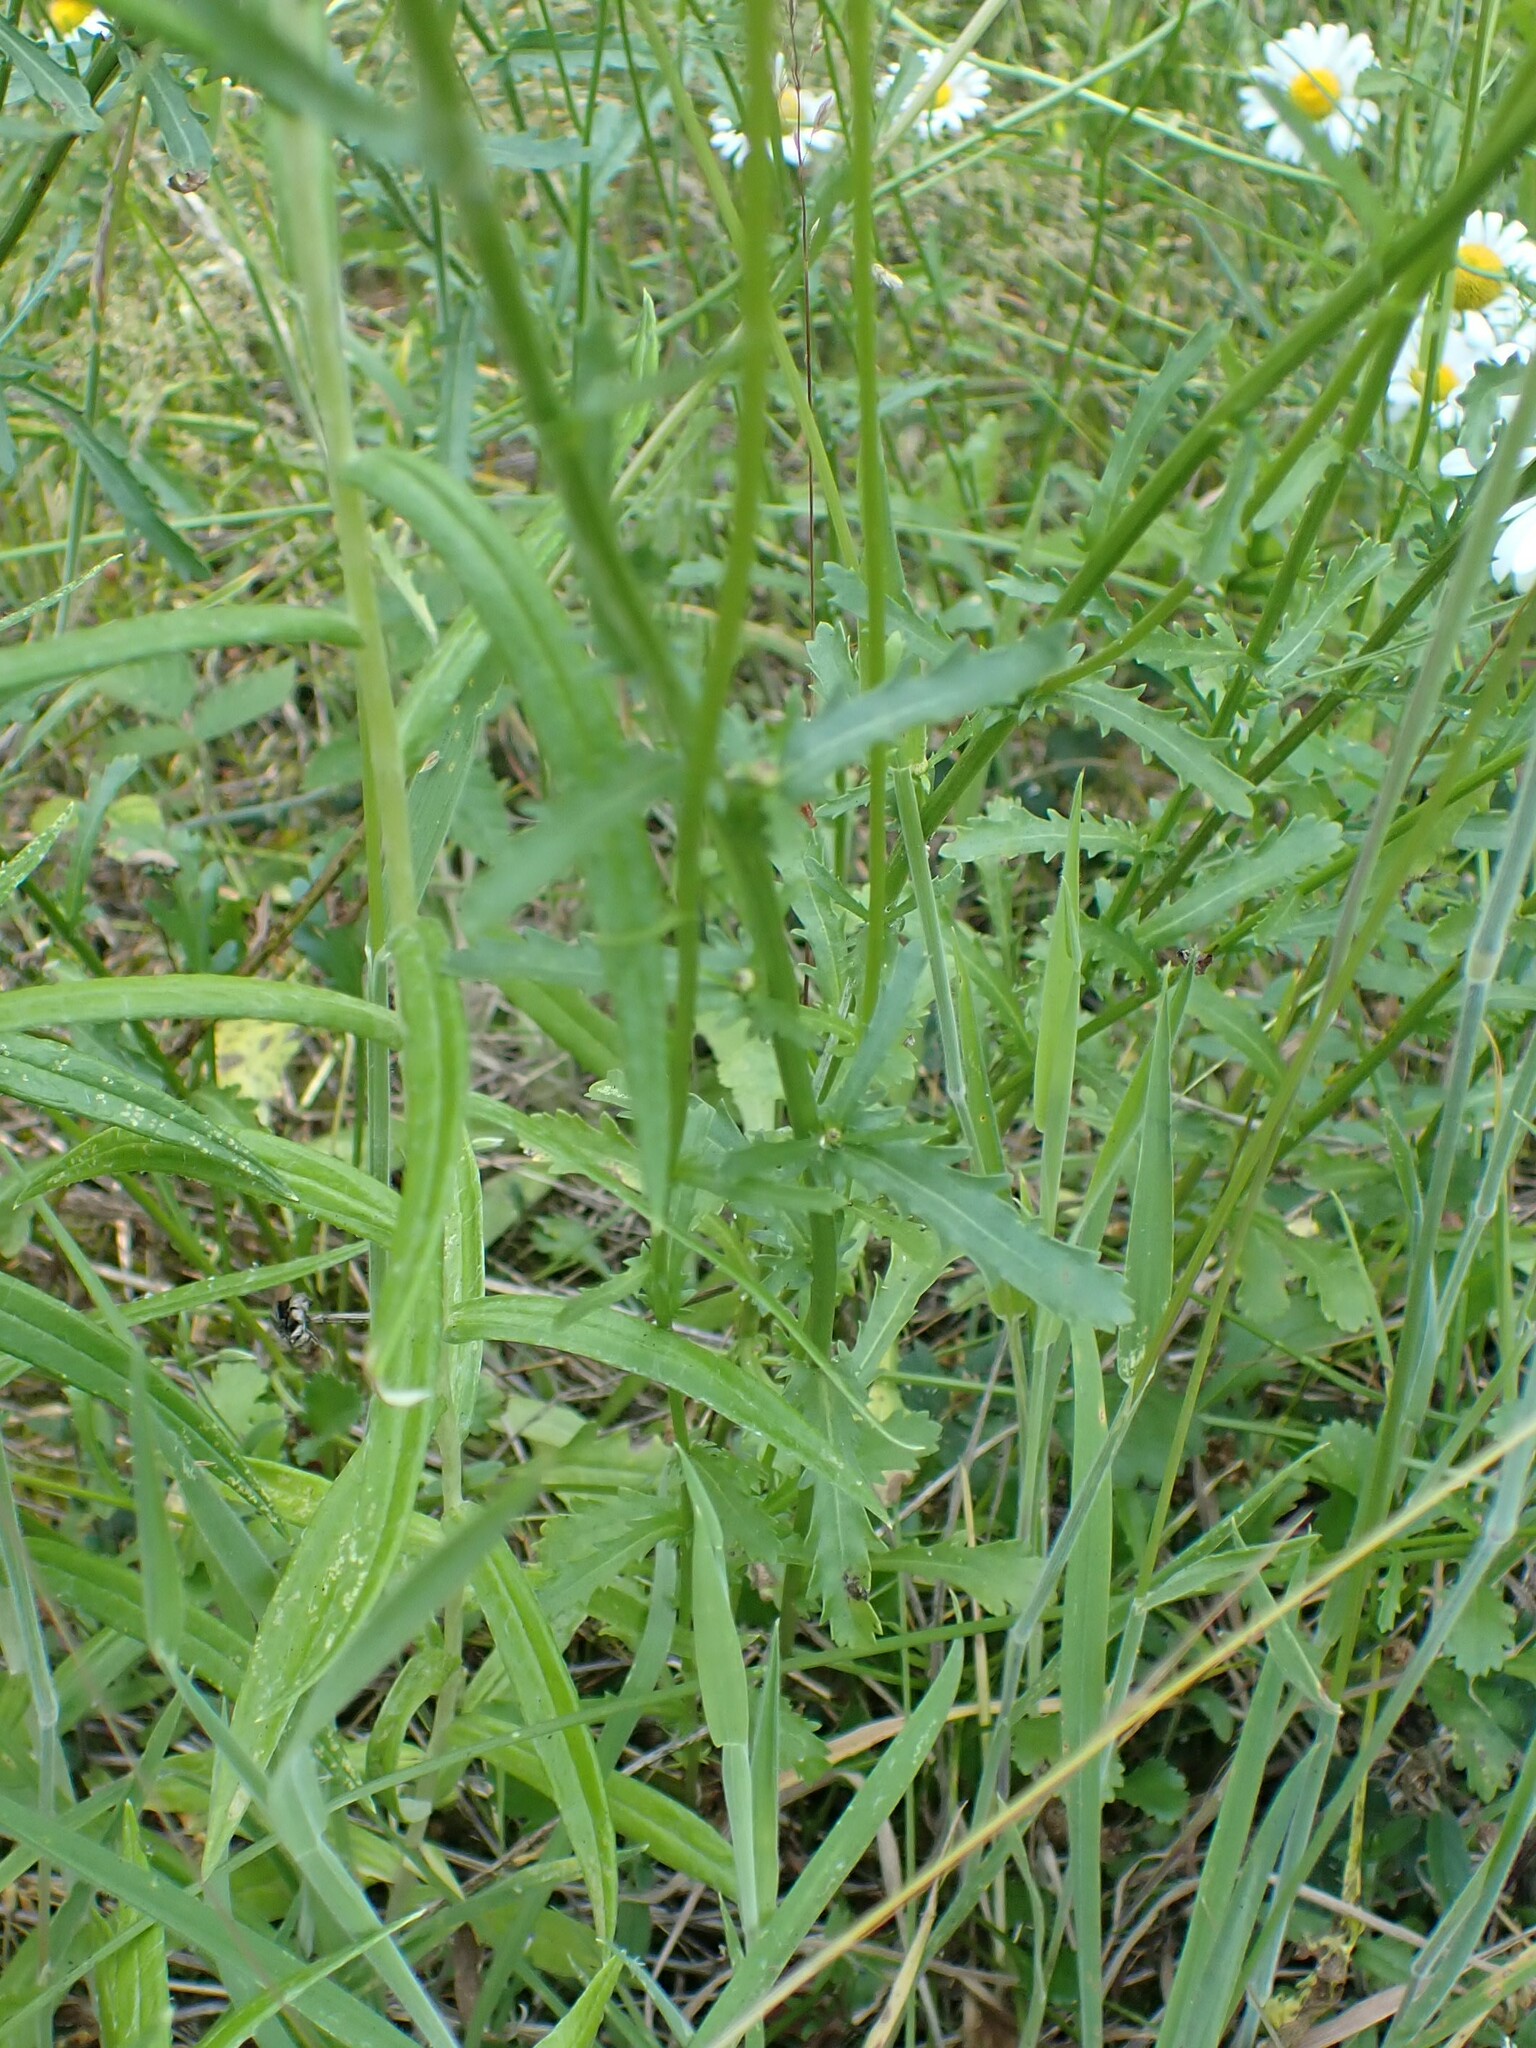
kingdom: Plantae
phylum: Tracheophyta
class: Magnoliopsida
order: Asterales
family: Asteraceae
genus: Leucanthemum
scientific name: Leucanthemum vulgare
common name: Oxeye daisy
